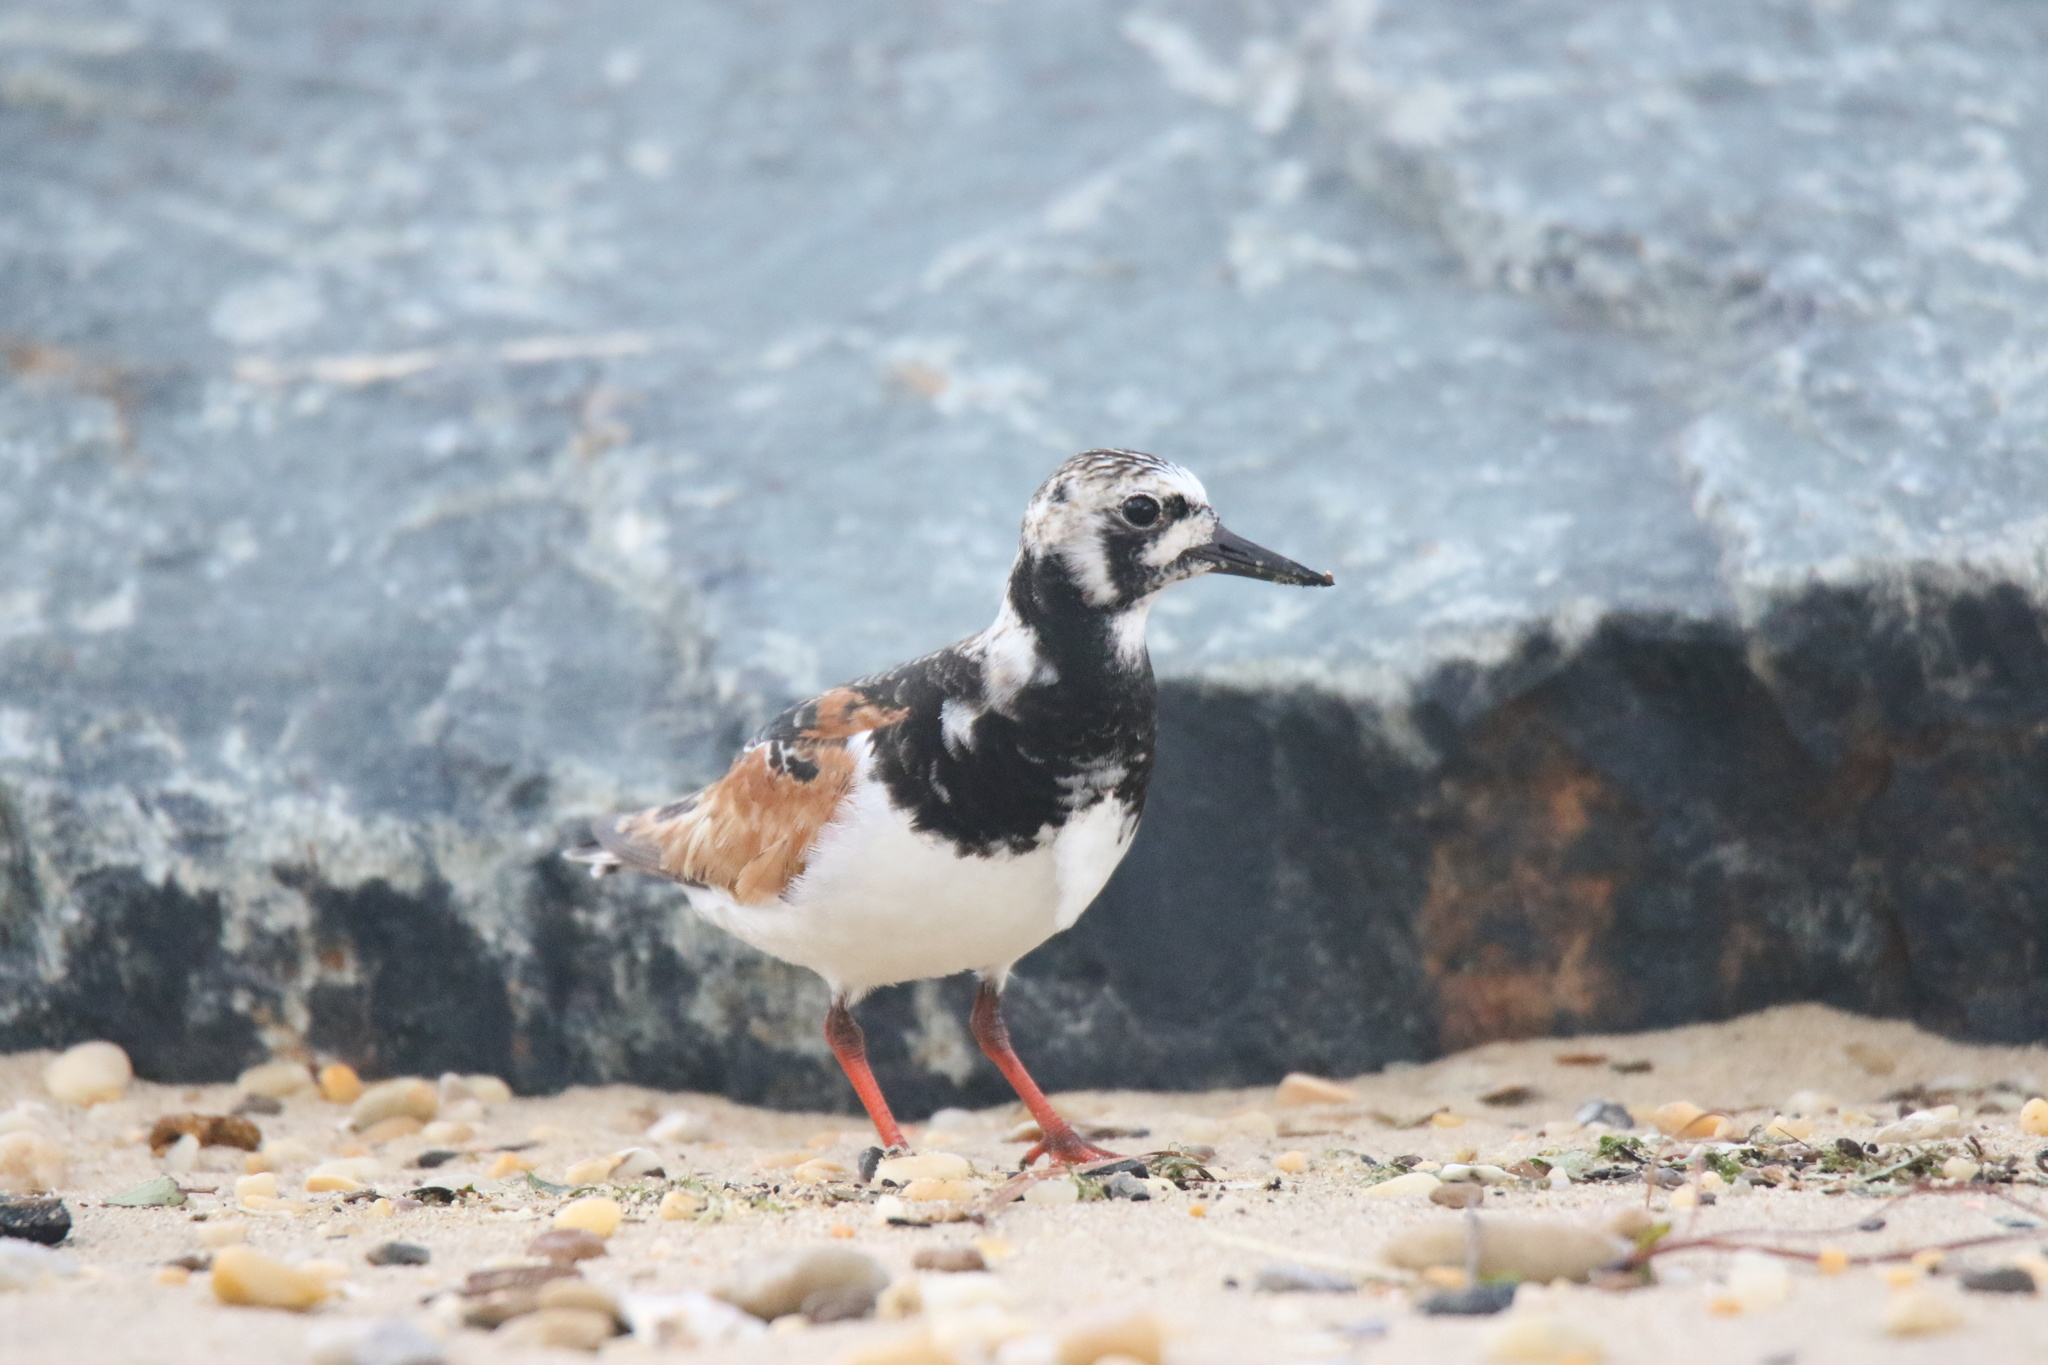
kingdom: Animalia
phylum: Chordata
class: Aves
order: Charadriiformes
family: Scolopacidae
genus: Arenaria
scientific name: Arenaria interpres
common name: Ruddy turnstone
